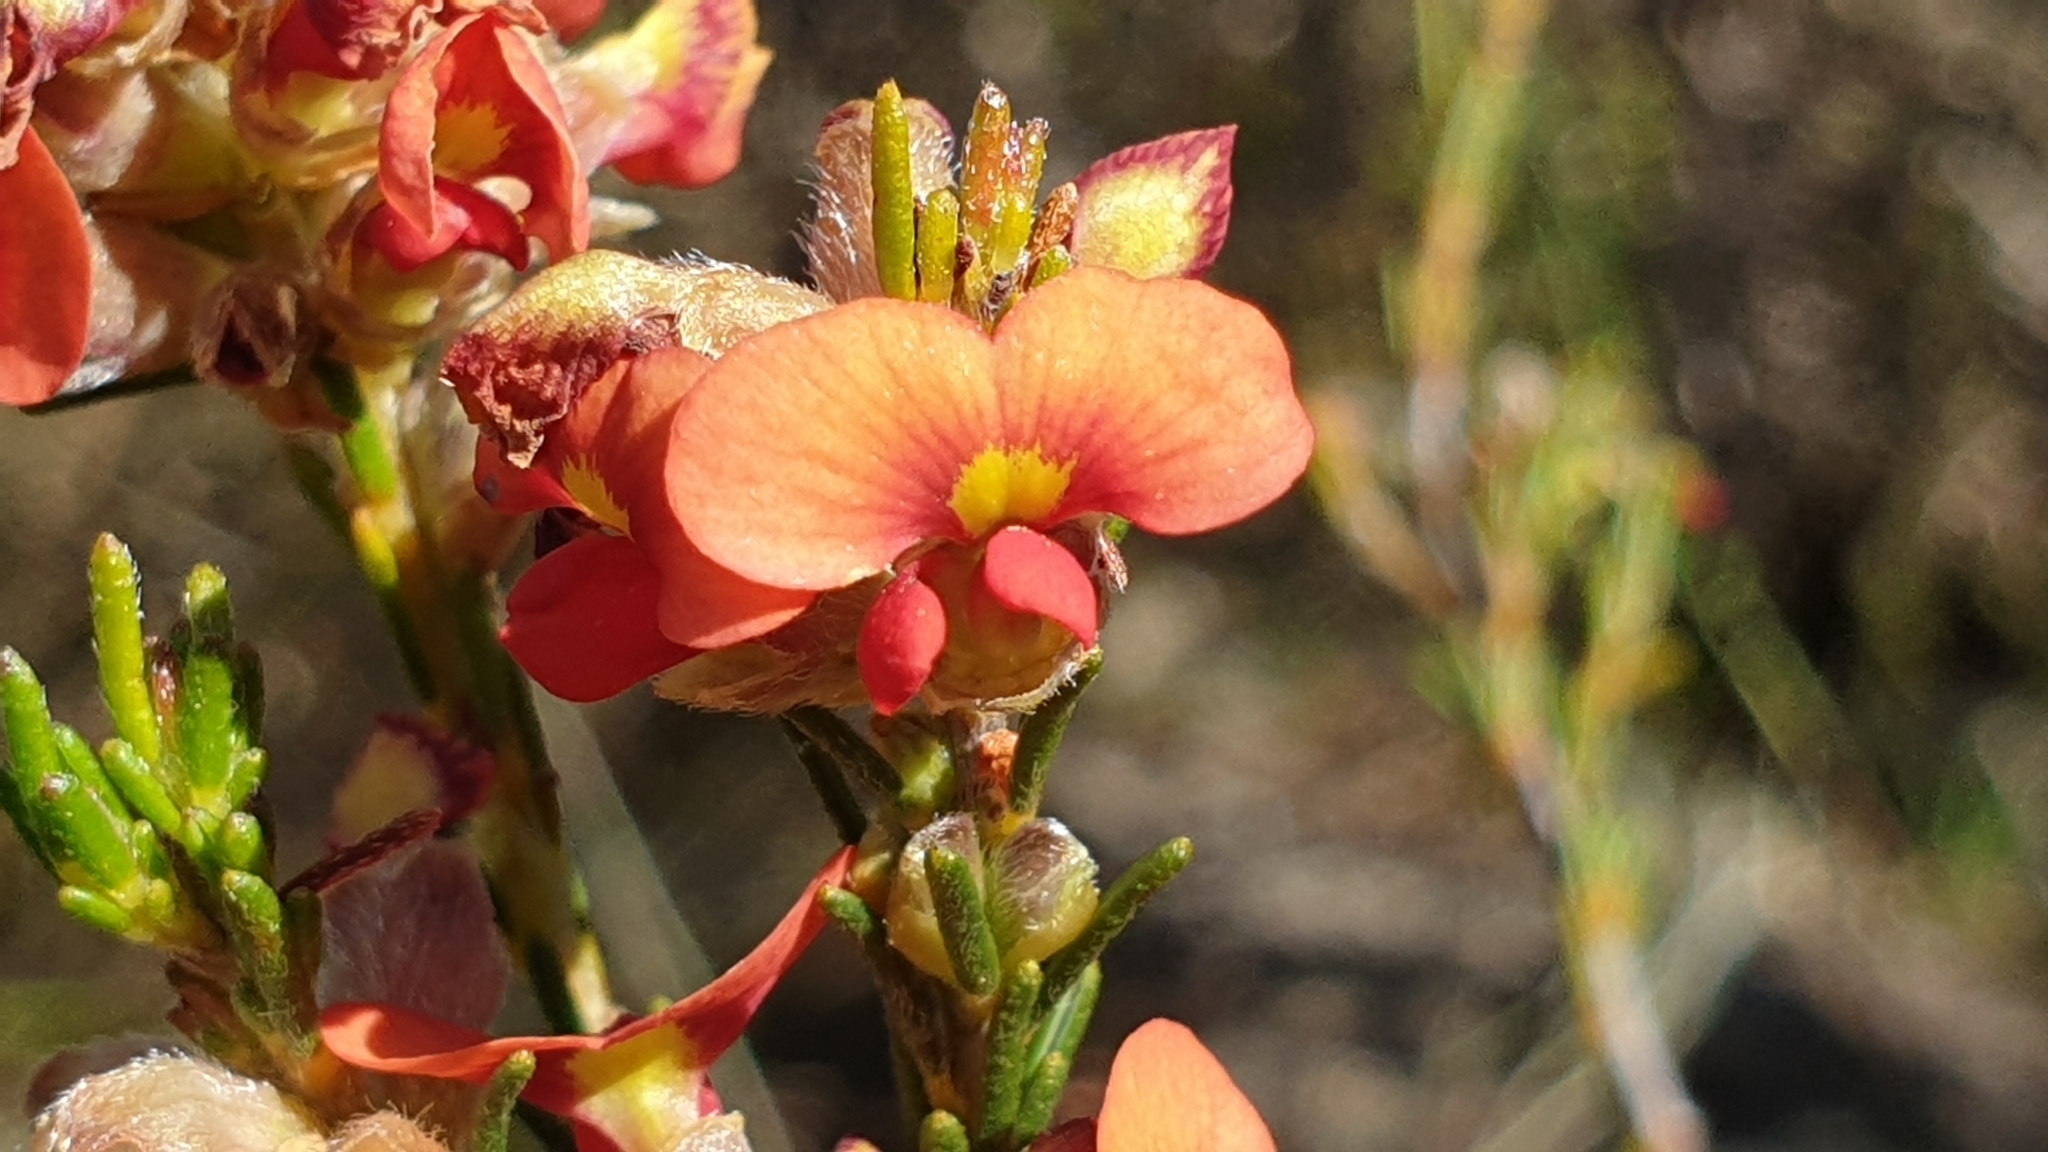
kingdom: Plantae
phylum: Tracheophyta
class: Magnoliopsida
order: Fabales
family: Fabaceae
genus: Dillwynia
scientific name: Dillwynia sericea
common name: Showy parrot-pea
